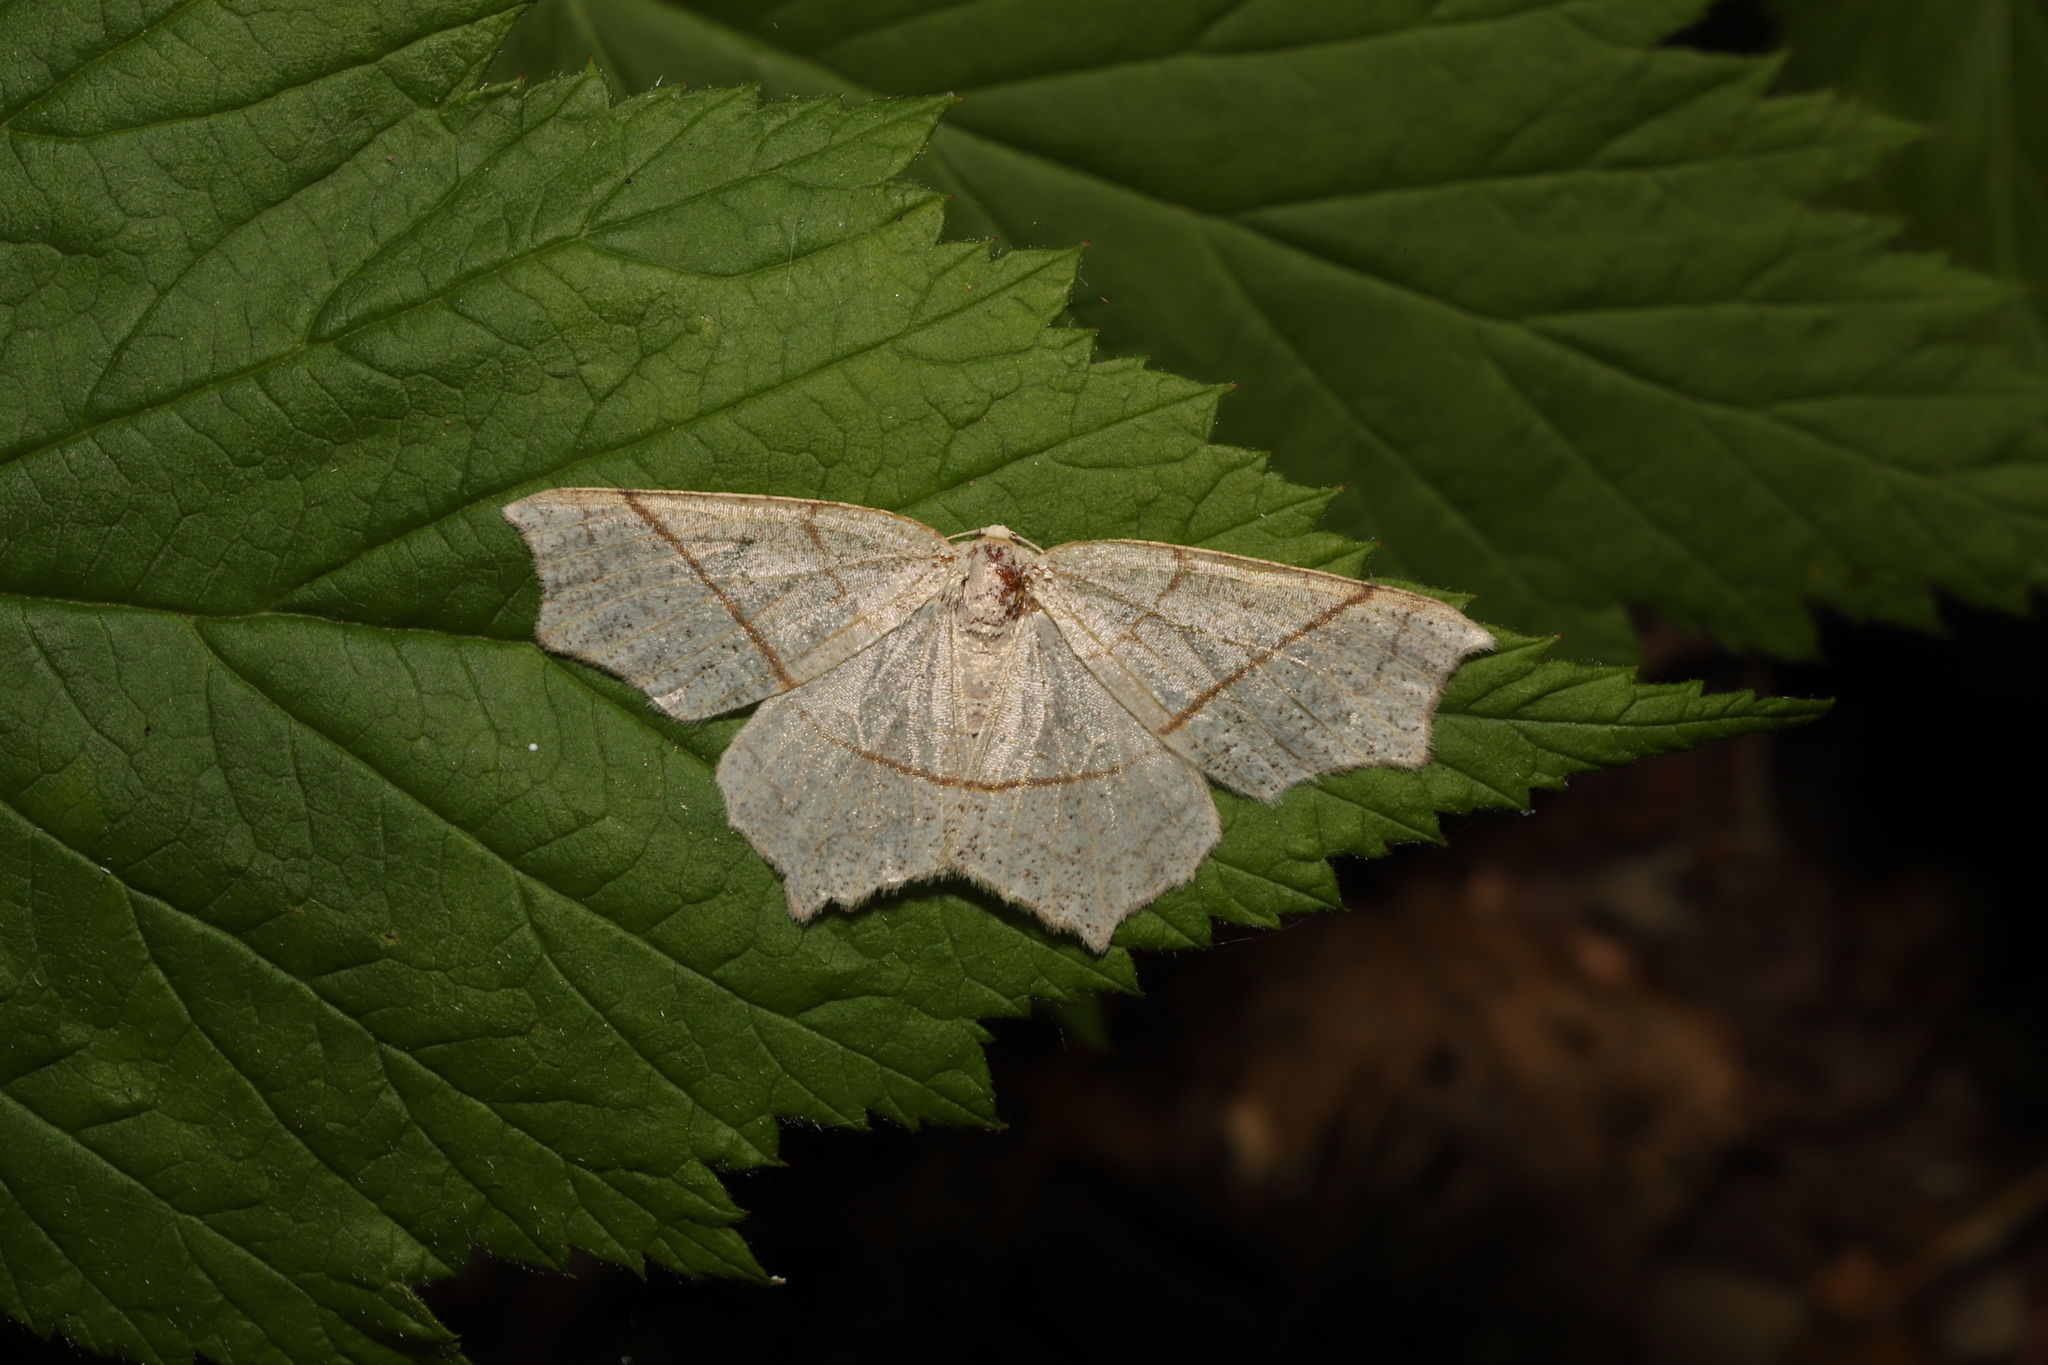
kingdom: Animalia
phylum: Arthropoda
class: Insecta
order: Lepidoptera
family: Geometridae
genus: Besma
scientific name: Besma quercivoraria
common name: Oak besma
